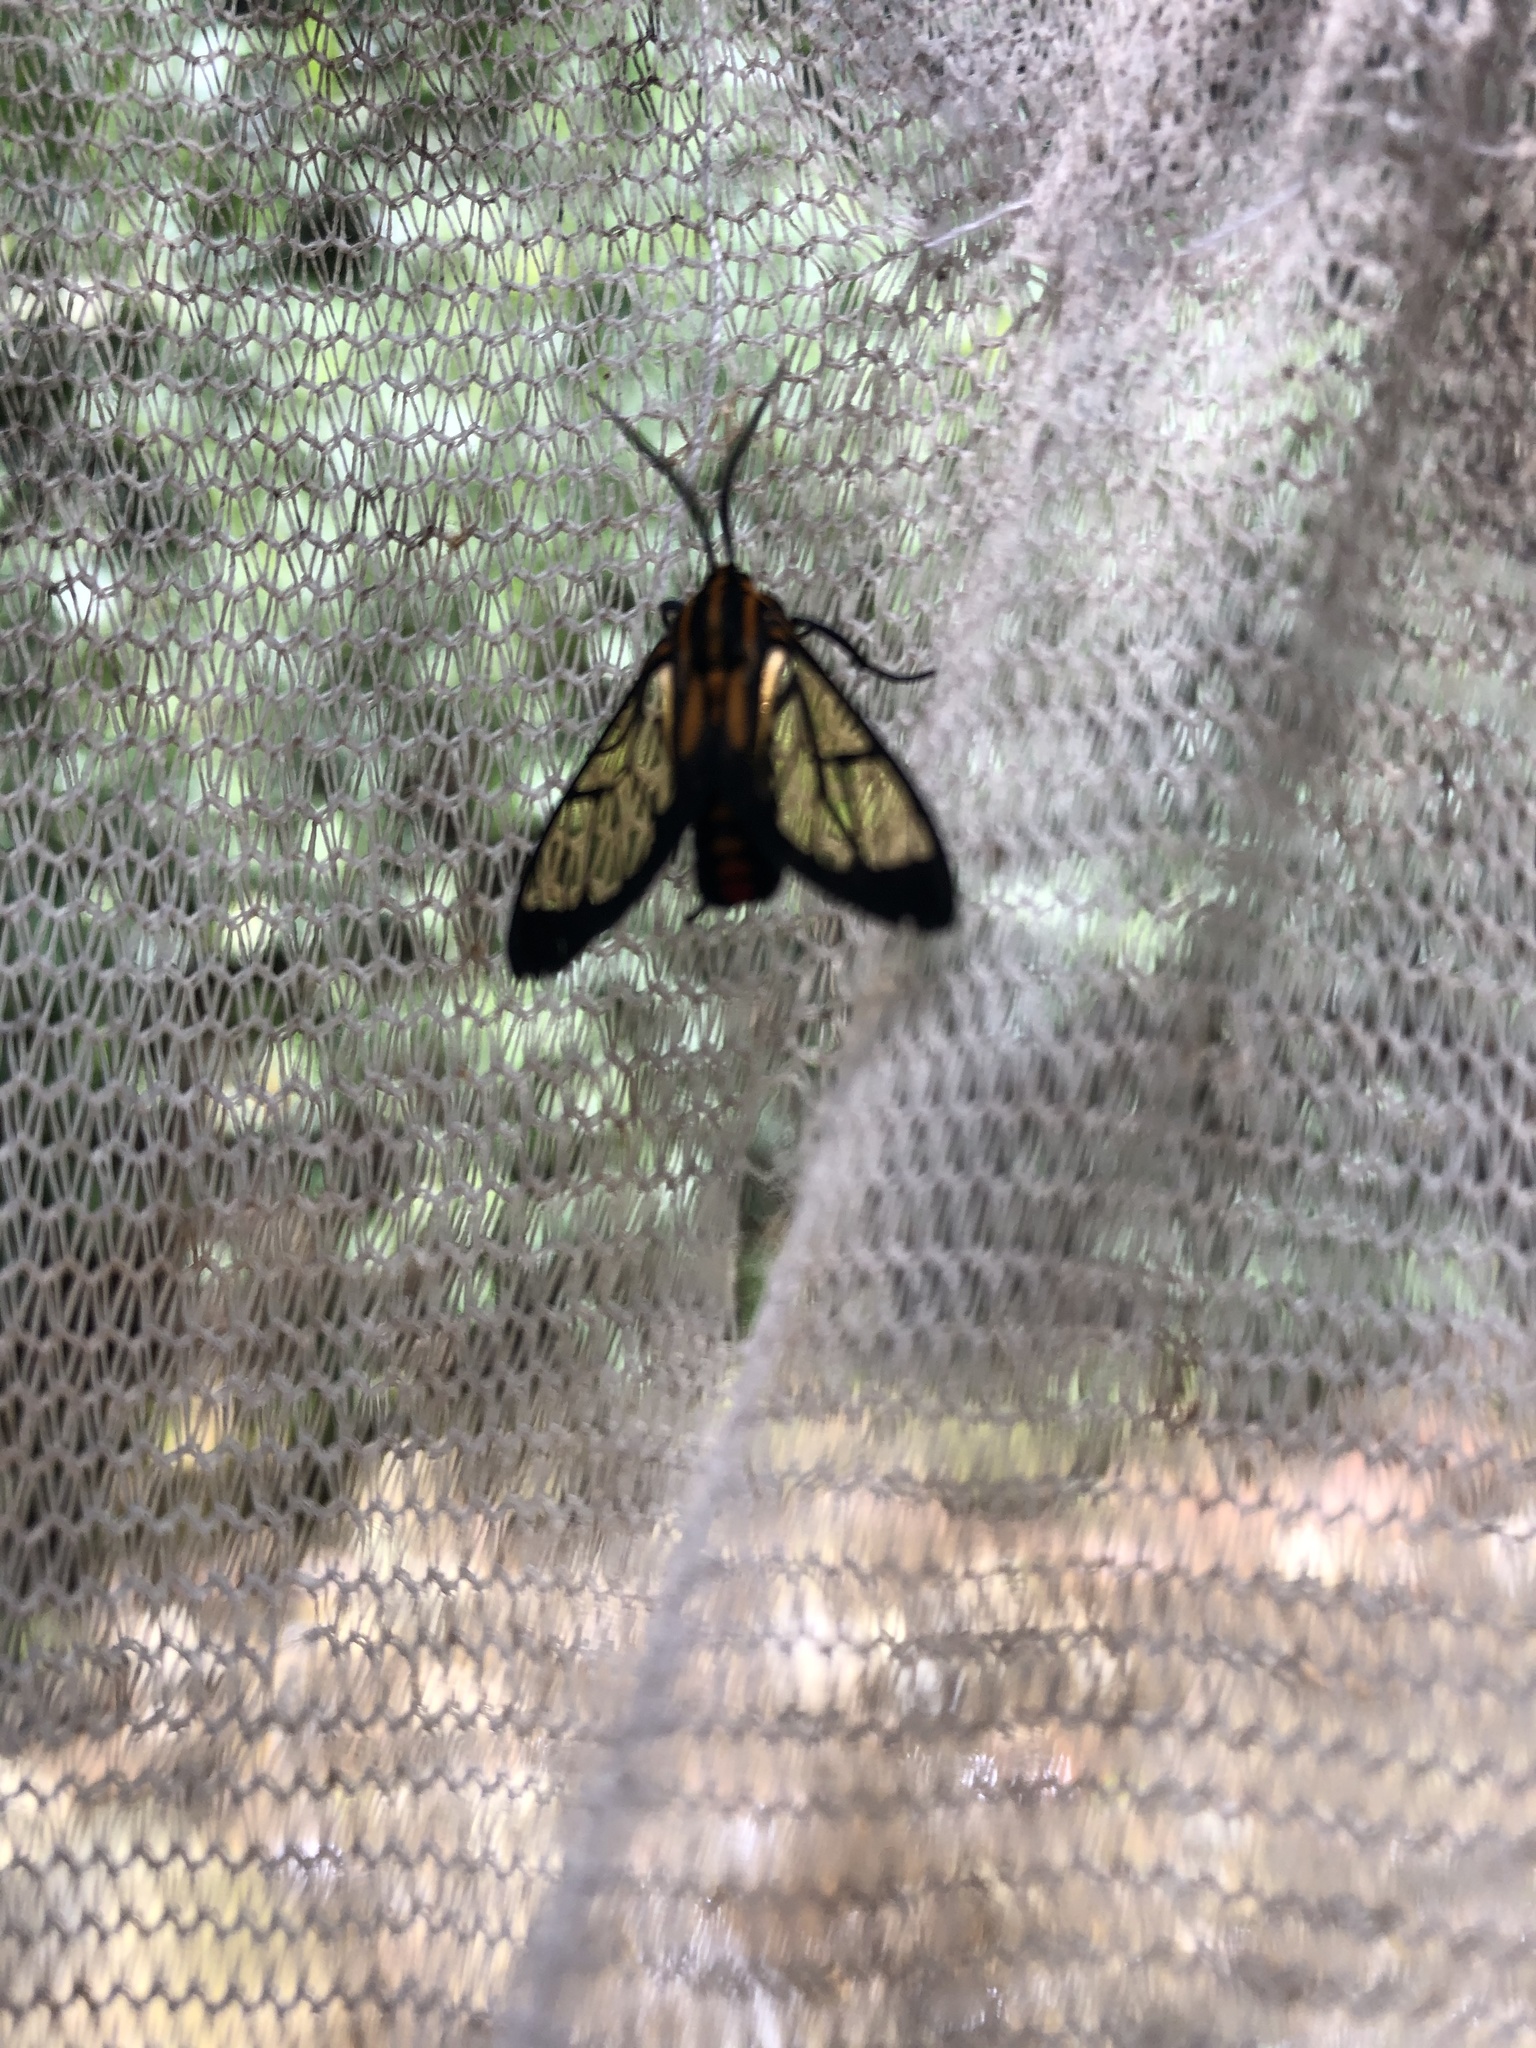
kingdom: Animalia
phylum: Arthropoda
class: Insecta
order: Lepidoptera
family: Erebidae
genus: Paraethria
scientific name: Paraethria flavosignata
